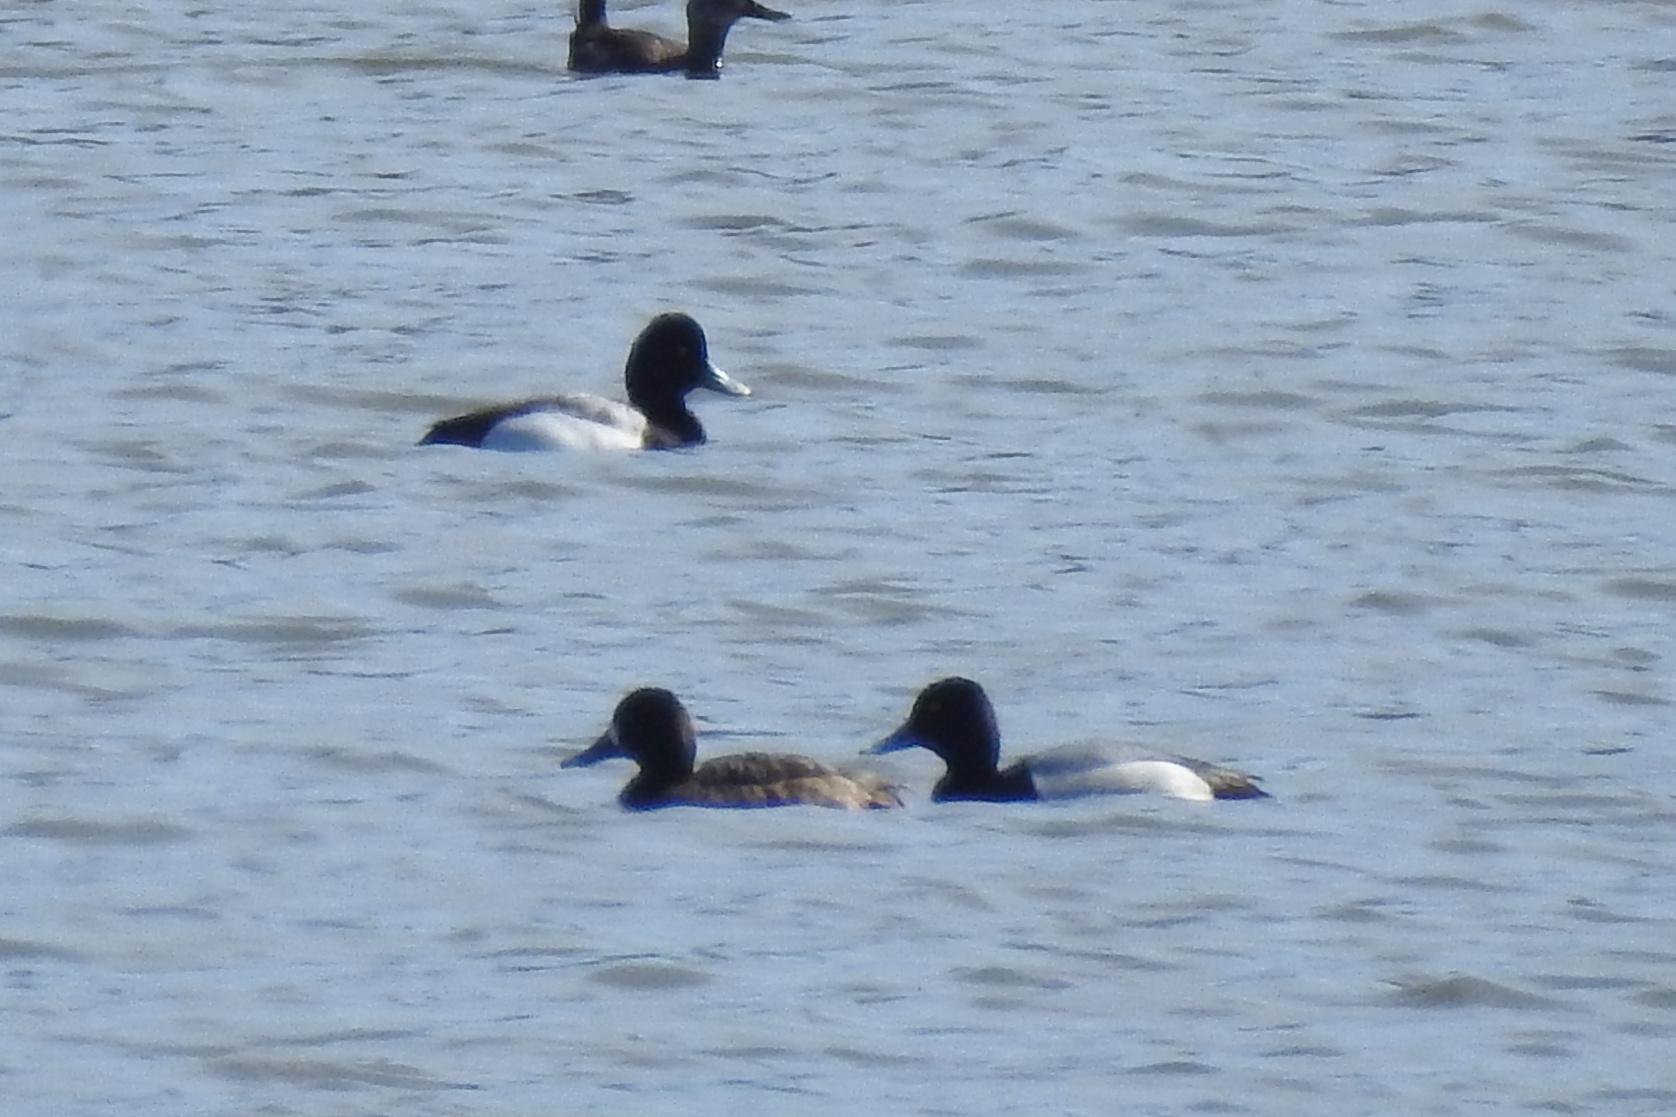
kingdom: Animalia
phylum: Chordata
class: Aves
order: Anseriformes
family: Anatidae
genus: Aythya
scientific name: Aythya affinis
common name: Lesser scaup
